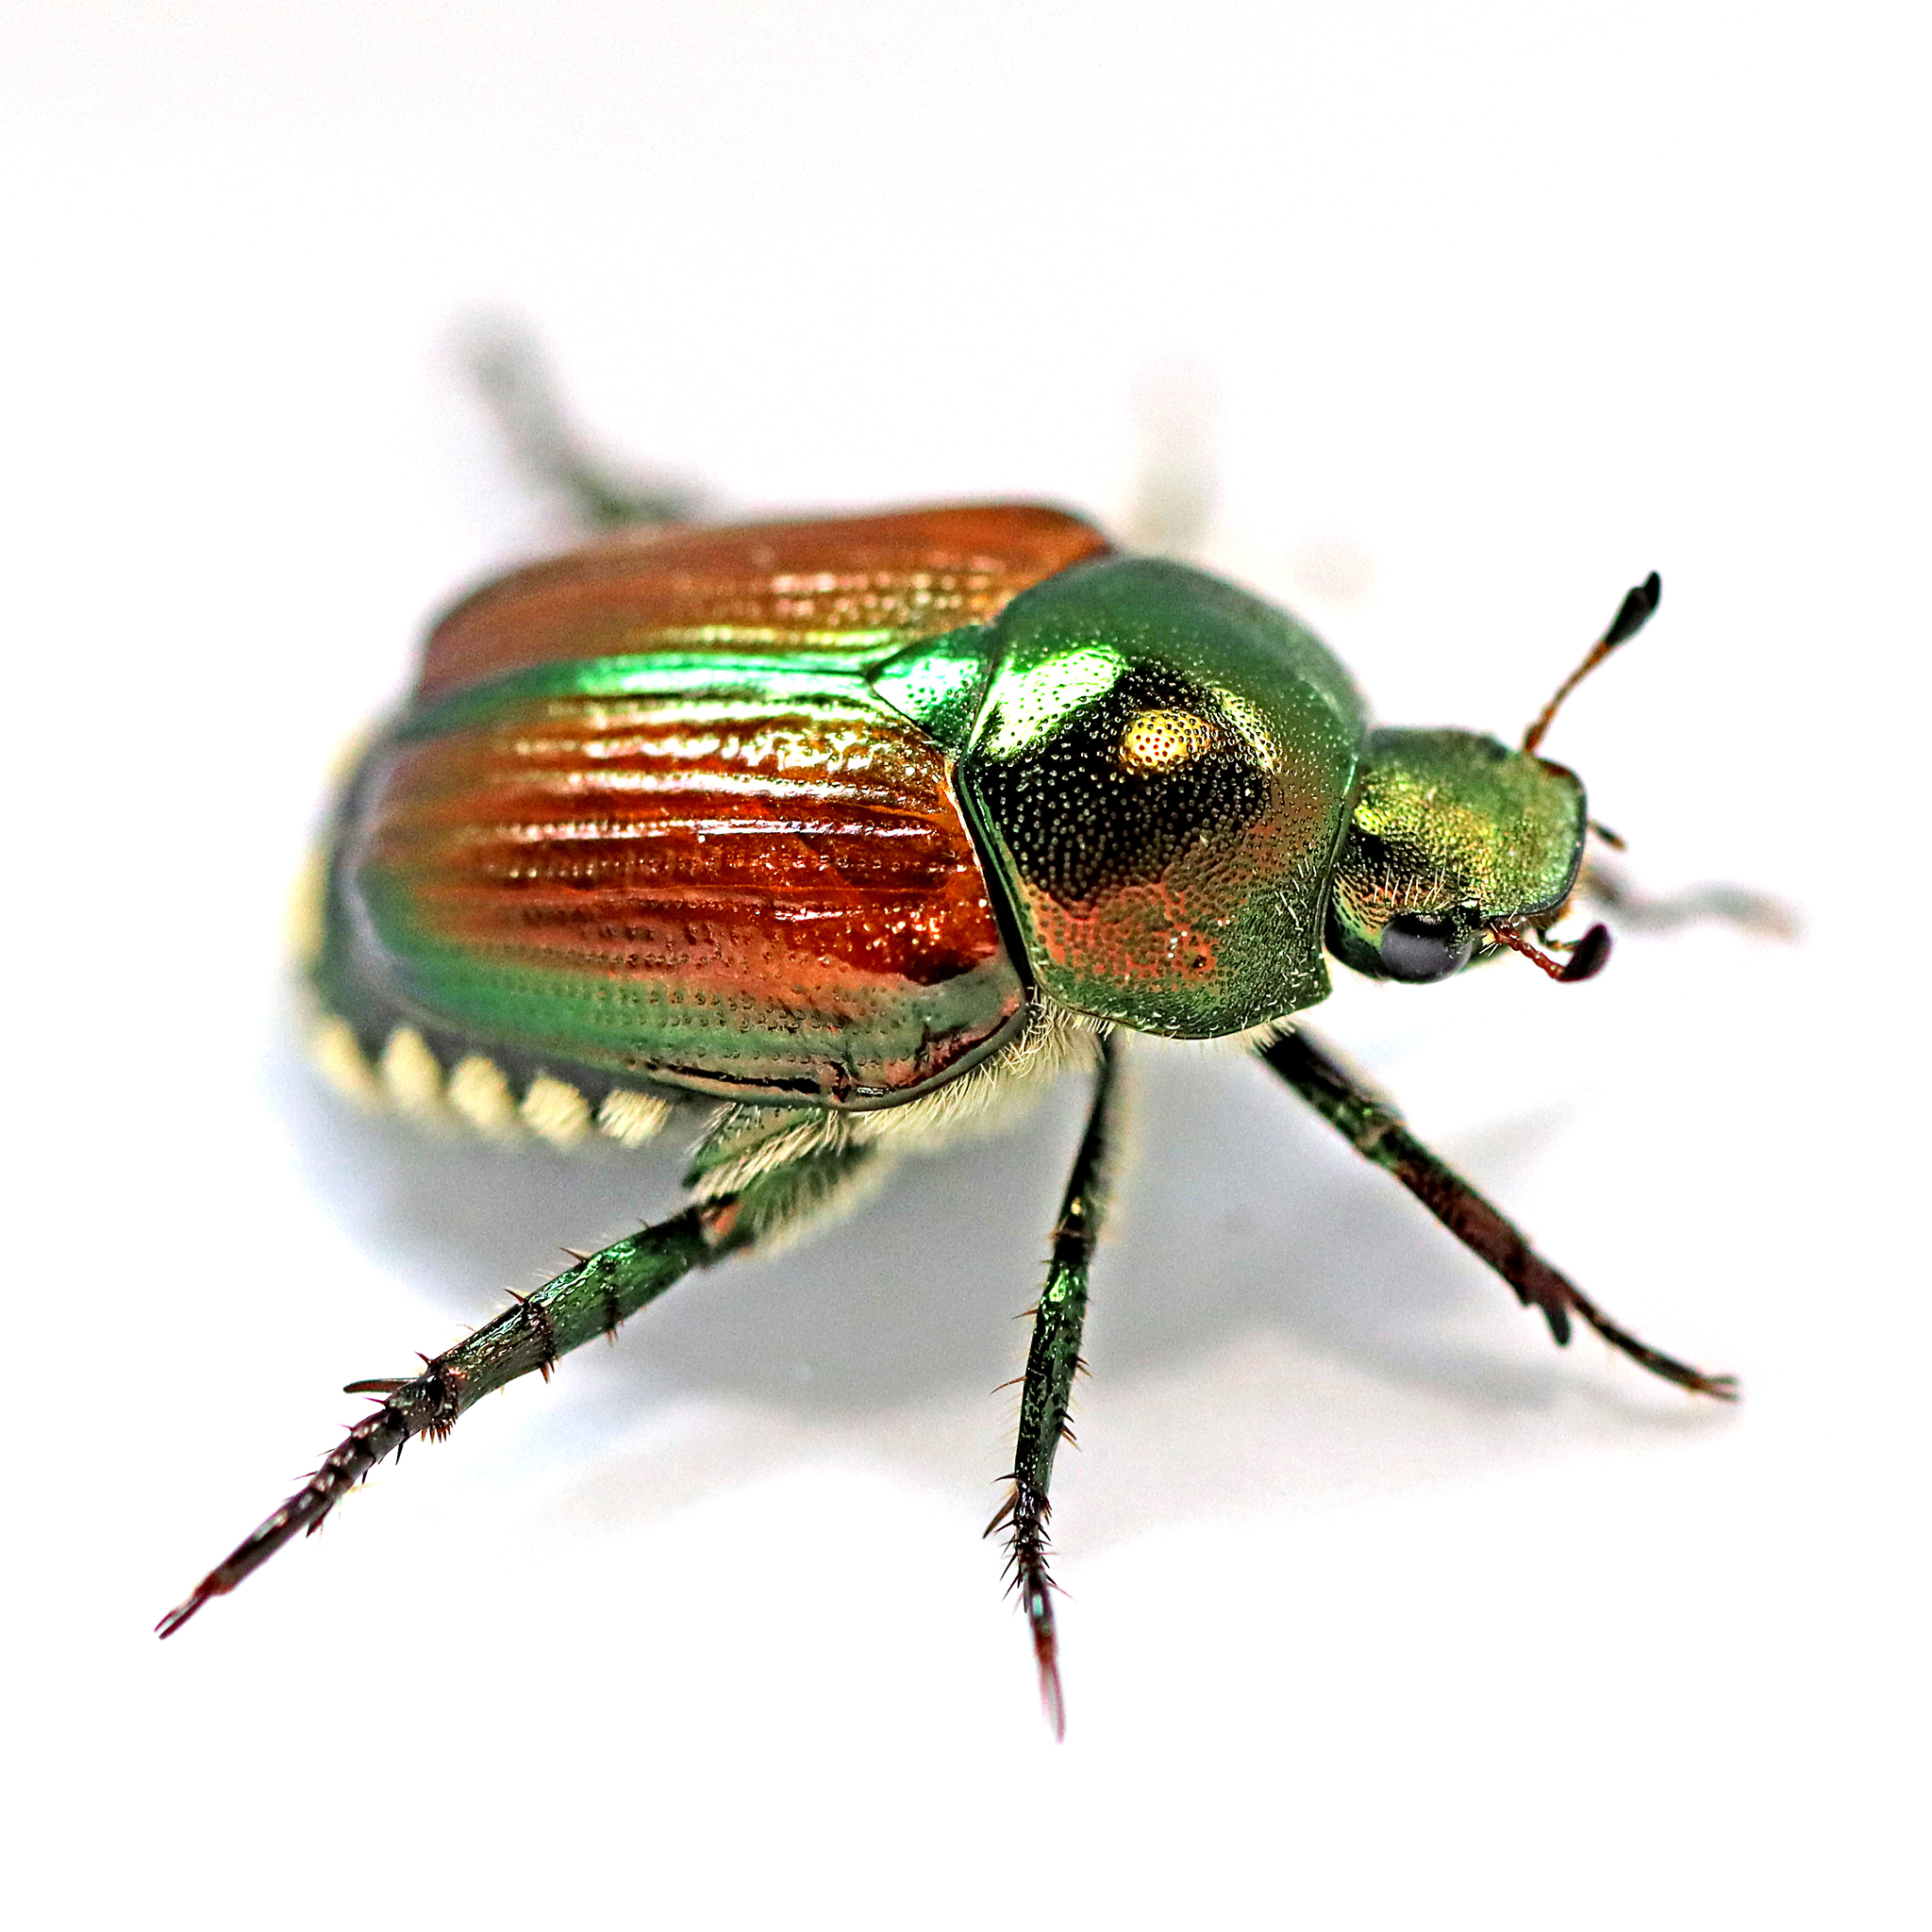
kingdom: Animalia
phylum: Arthropoda
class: Insecta
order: Coleoptera
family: Scarabaeidae
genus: Popillia
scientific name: Popillia japonica
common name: Japanese beetle
